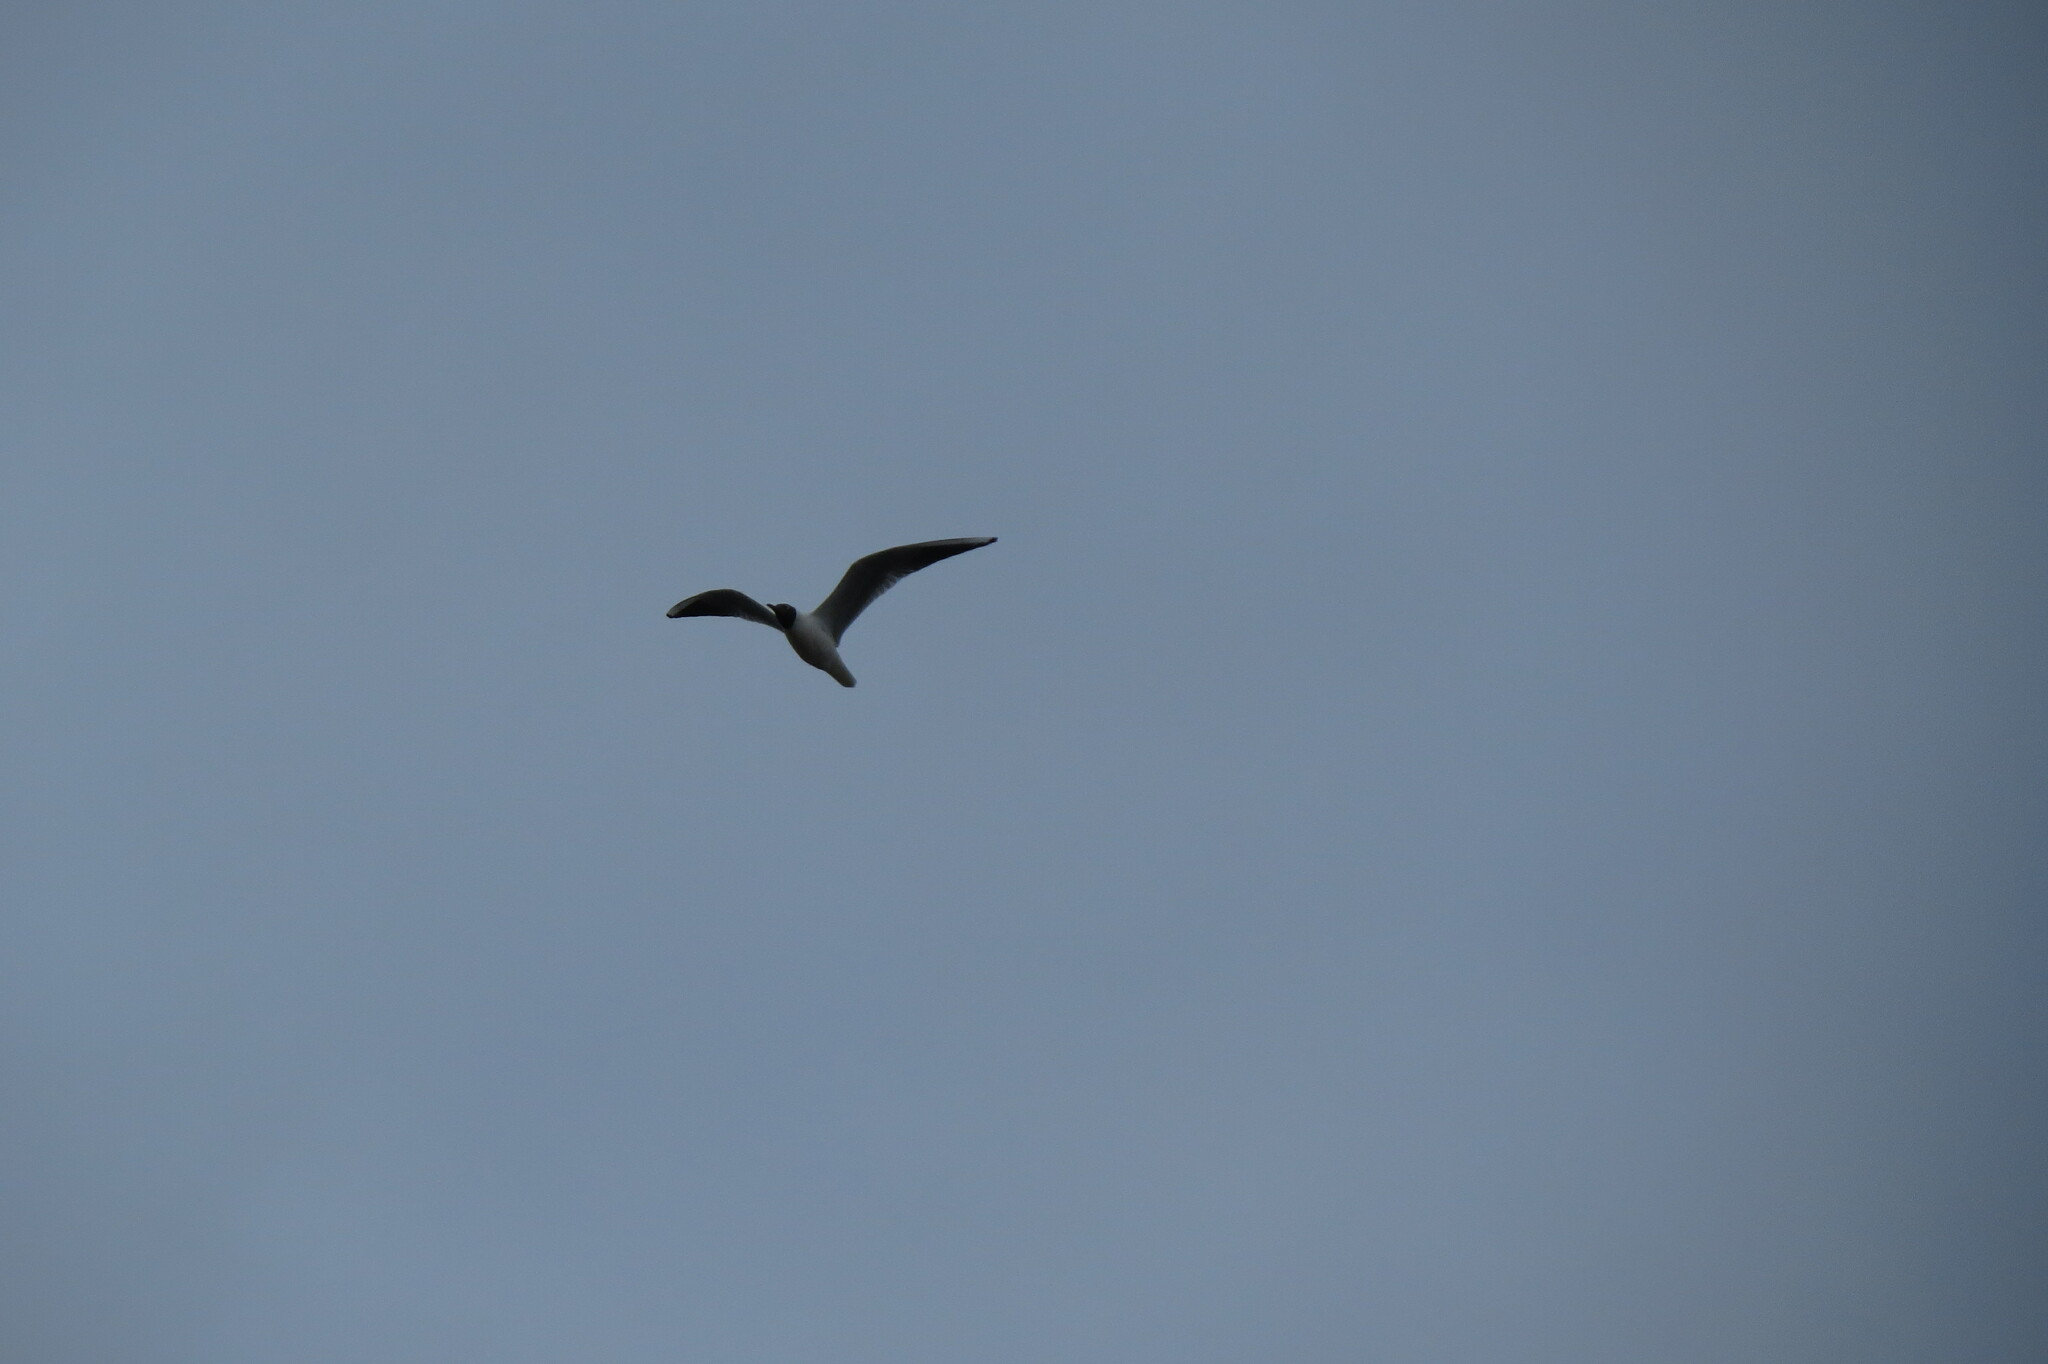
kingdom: Animalia
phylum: Chordata
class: Aves
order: Charadriiformes
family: Laridae
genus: Chroicocephalus
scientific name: Chroicocephalus ridibundus
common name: Black-headed gull
